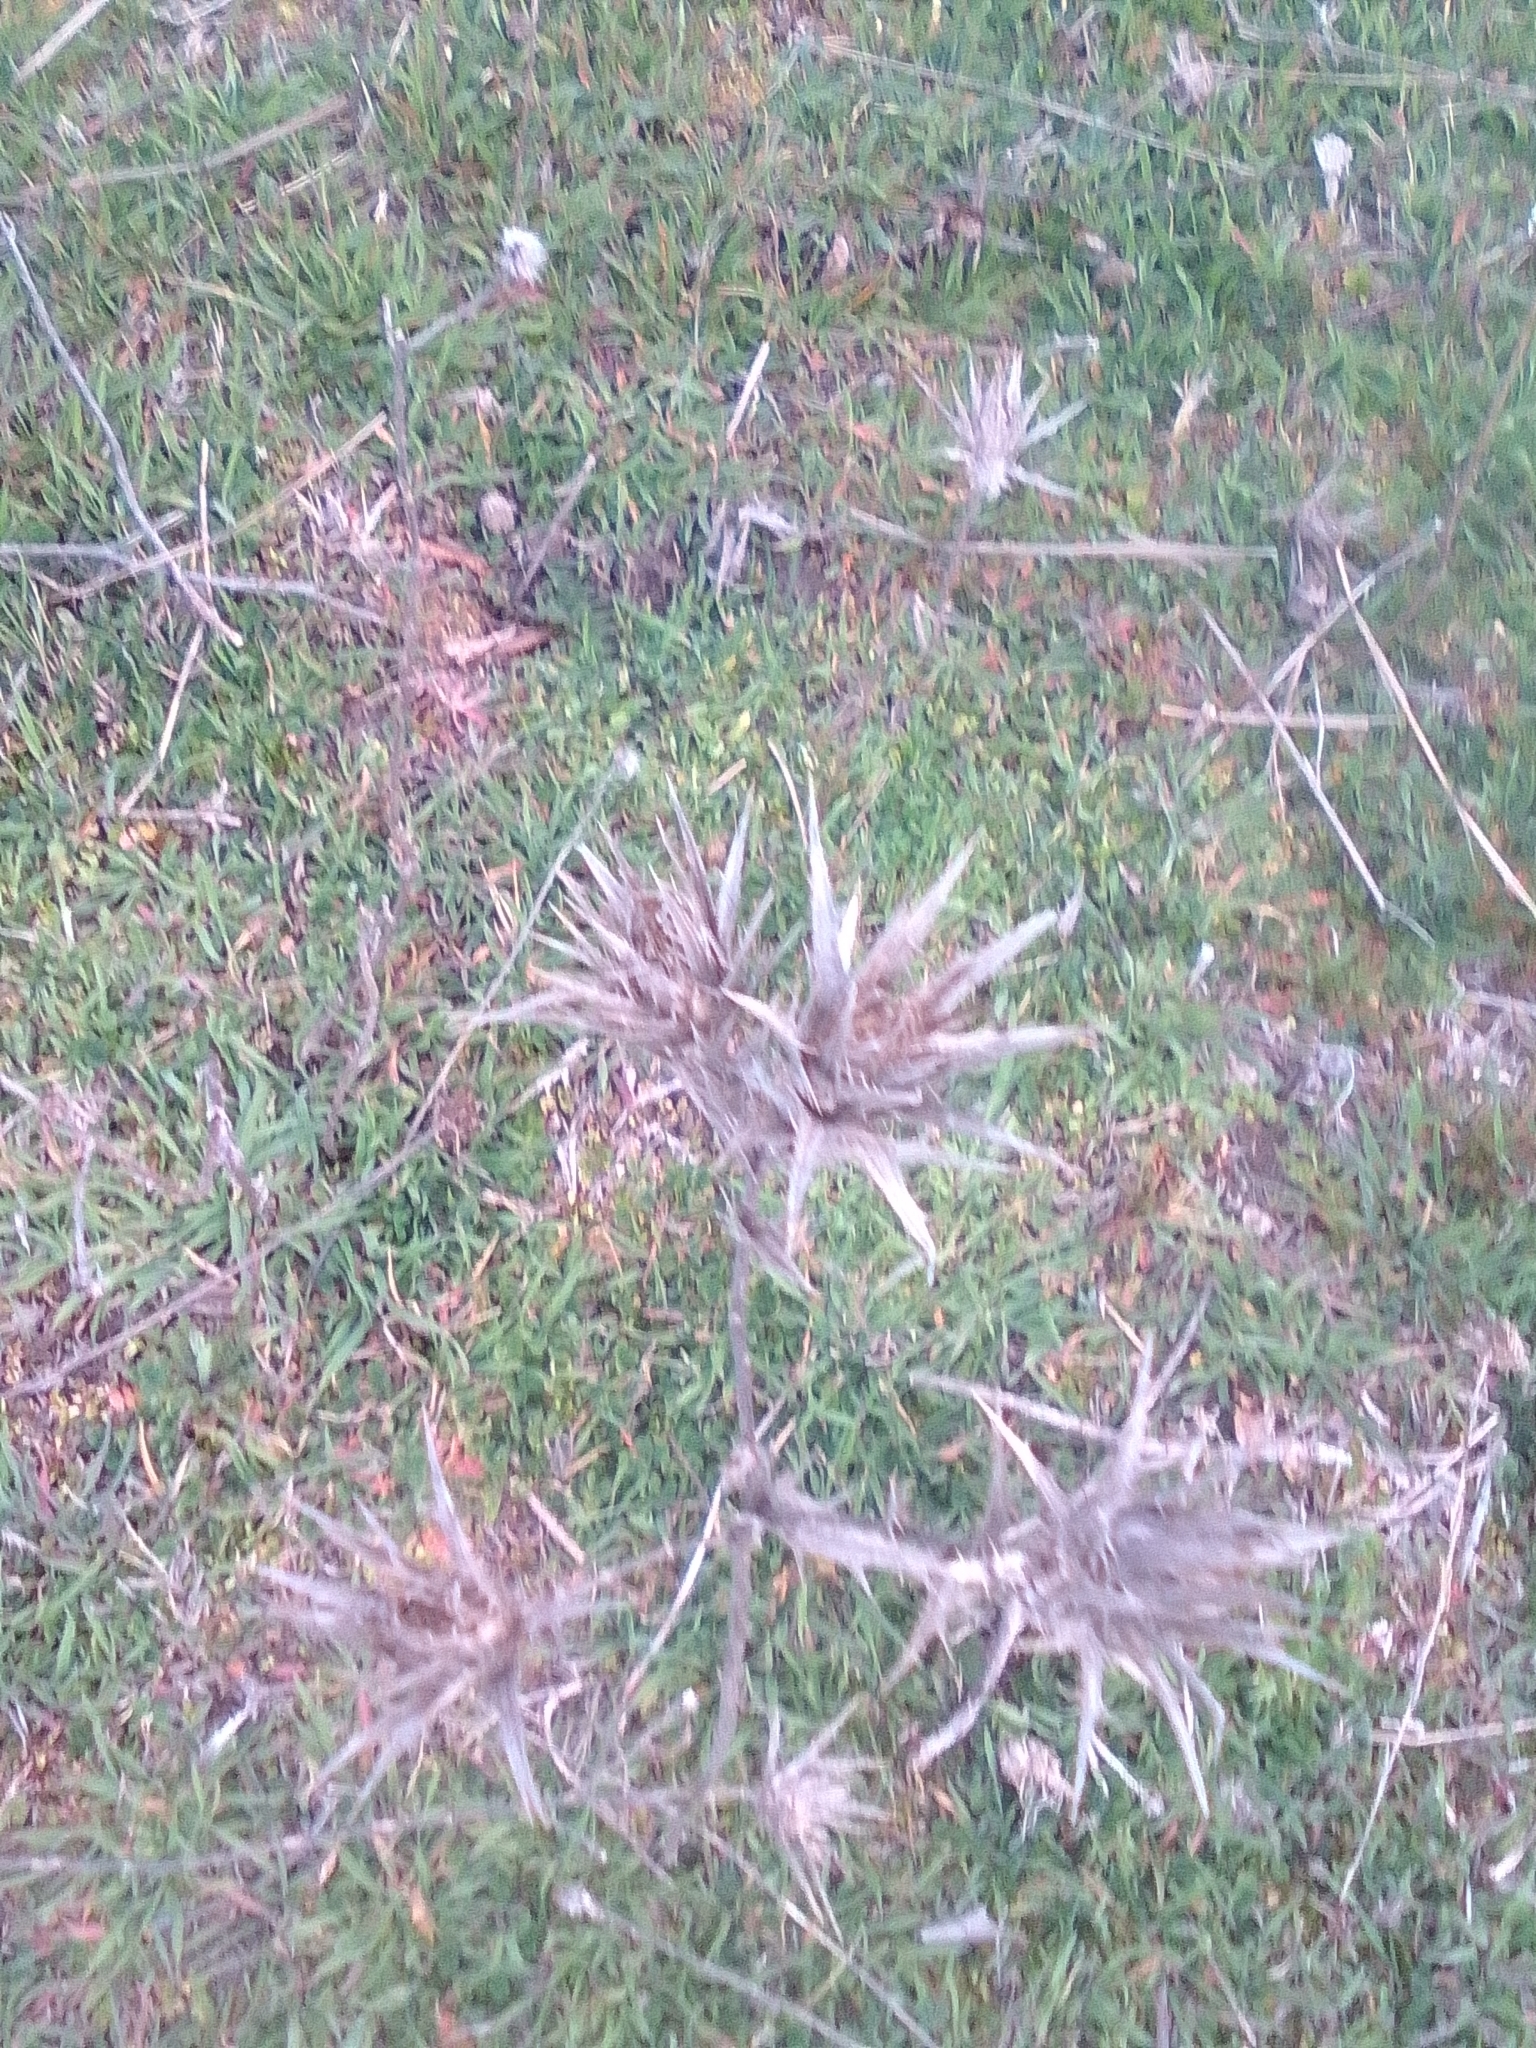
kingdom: Plantae
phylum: Tracheophyta
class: Magnoliopsida
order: Asterales
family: Asteraceae
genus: Carthamus
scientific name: Carthamus lanatus
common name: Downy safflower
